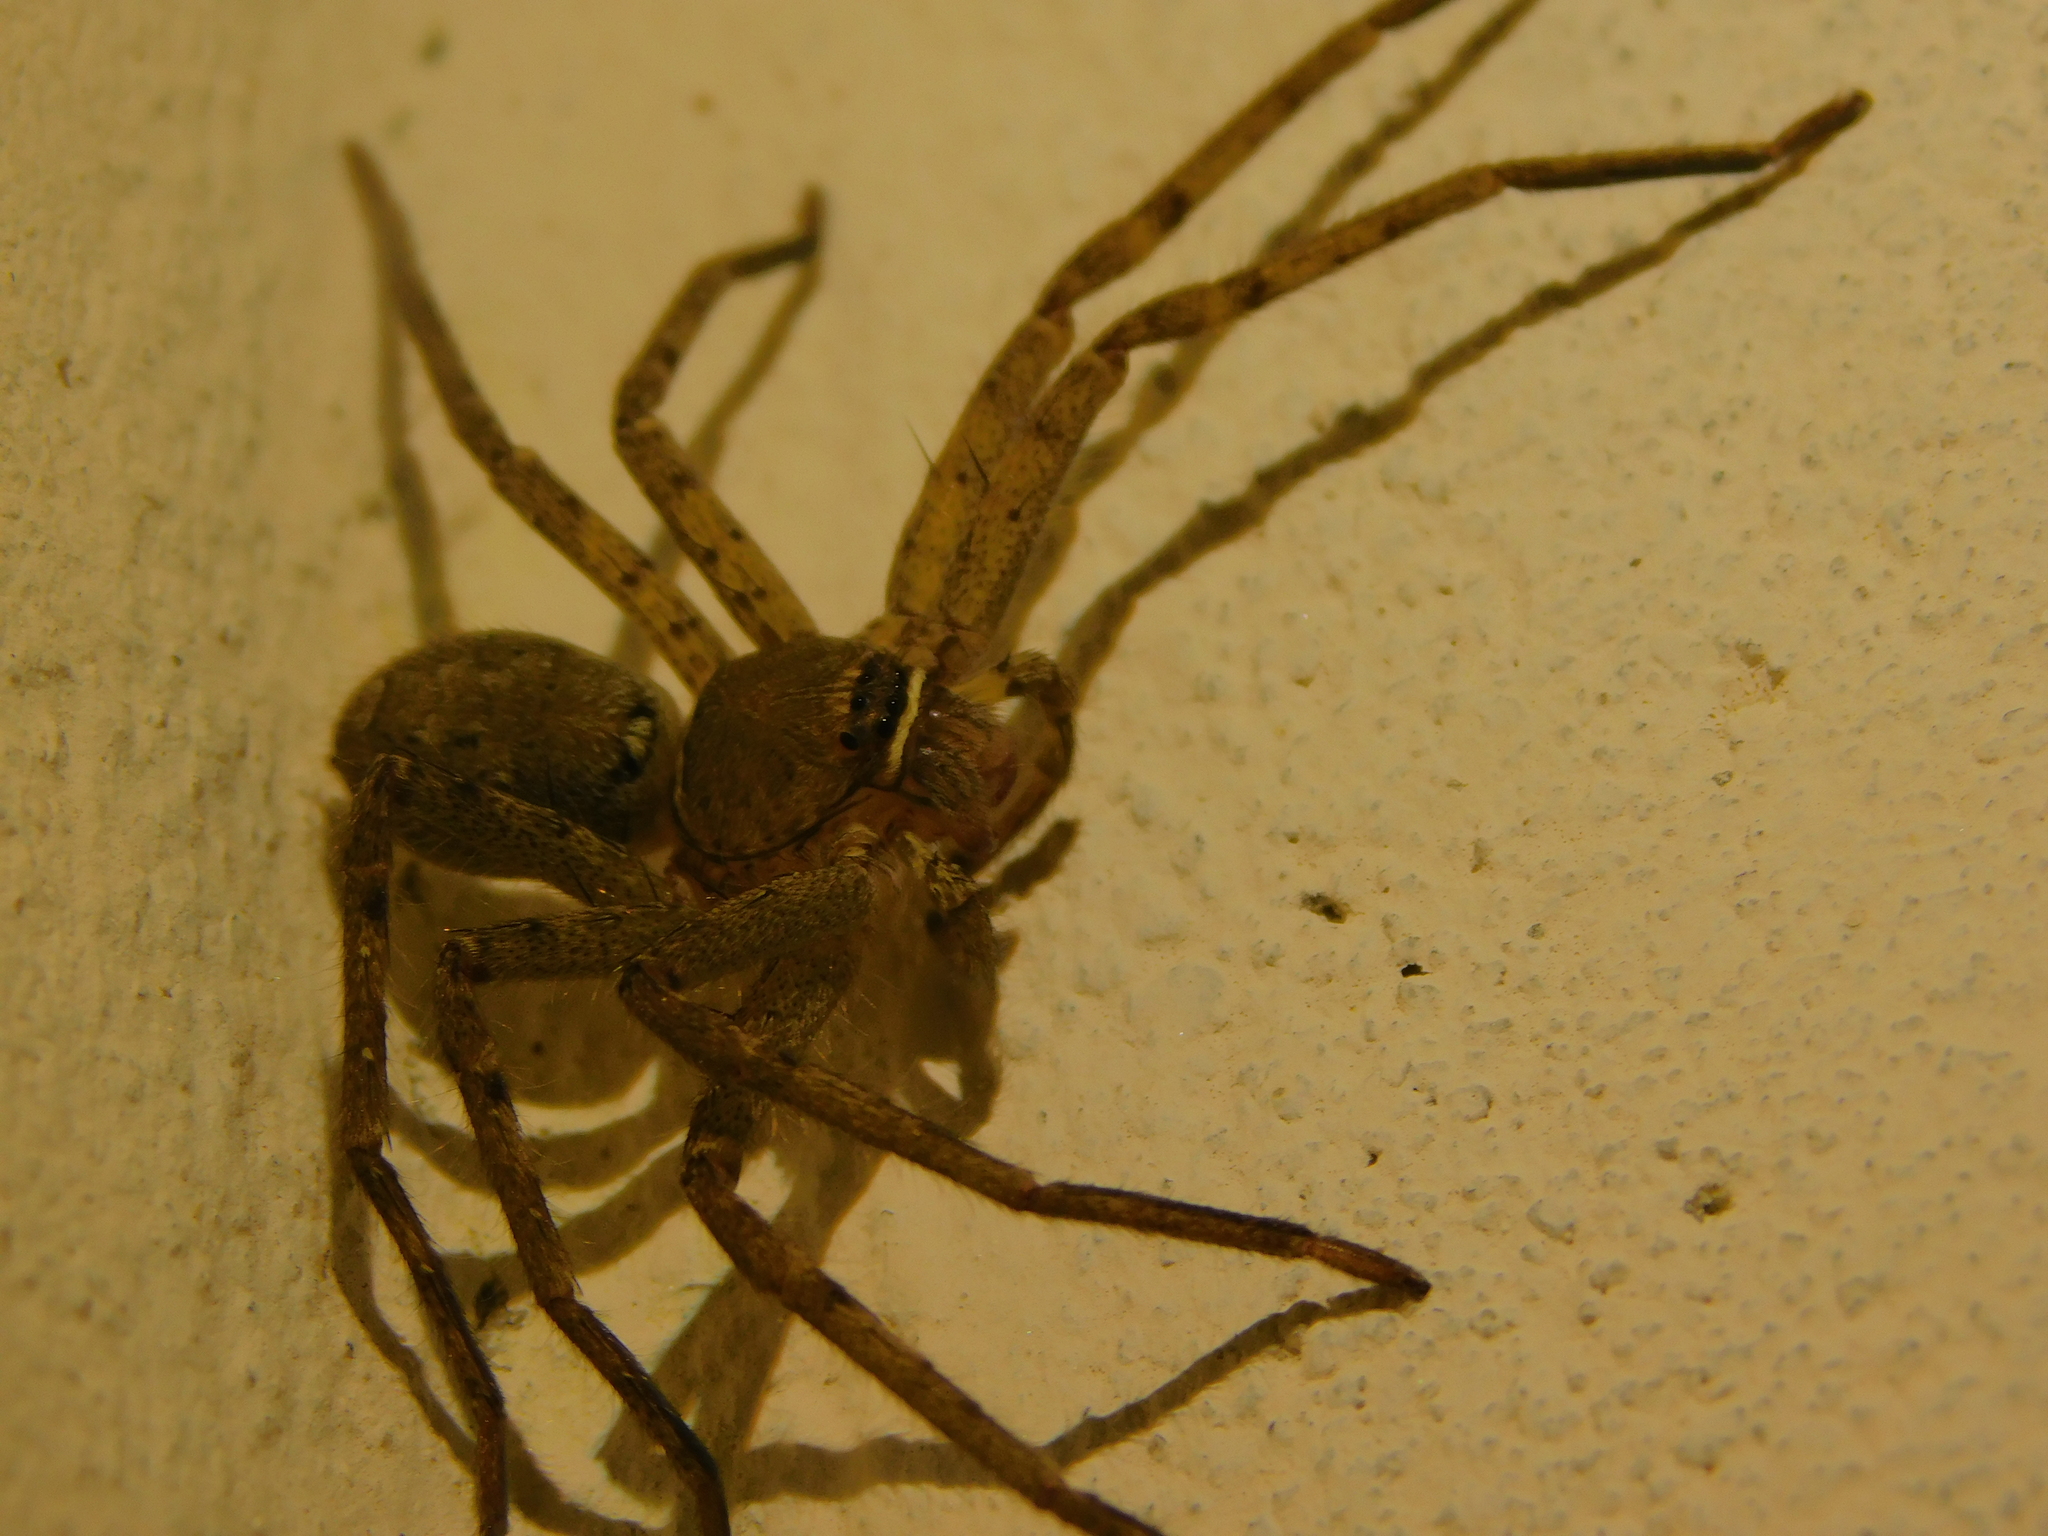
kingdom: Animalia
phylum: Arthropoda
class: Arachnida
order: Araneae
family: Sparassidae
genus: Heteropoda
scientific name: Heteropoda venatoria
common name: Huntsman spider
